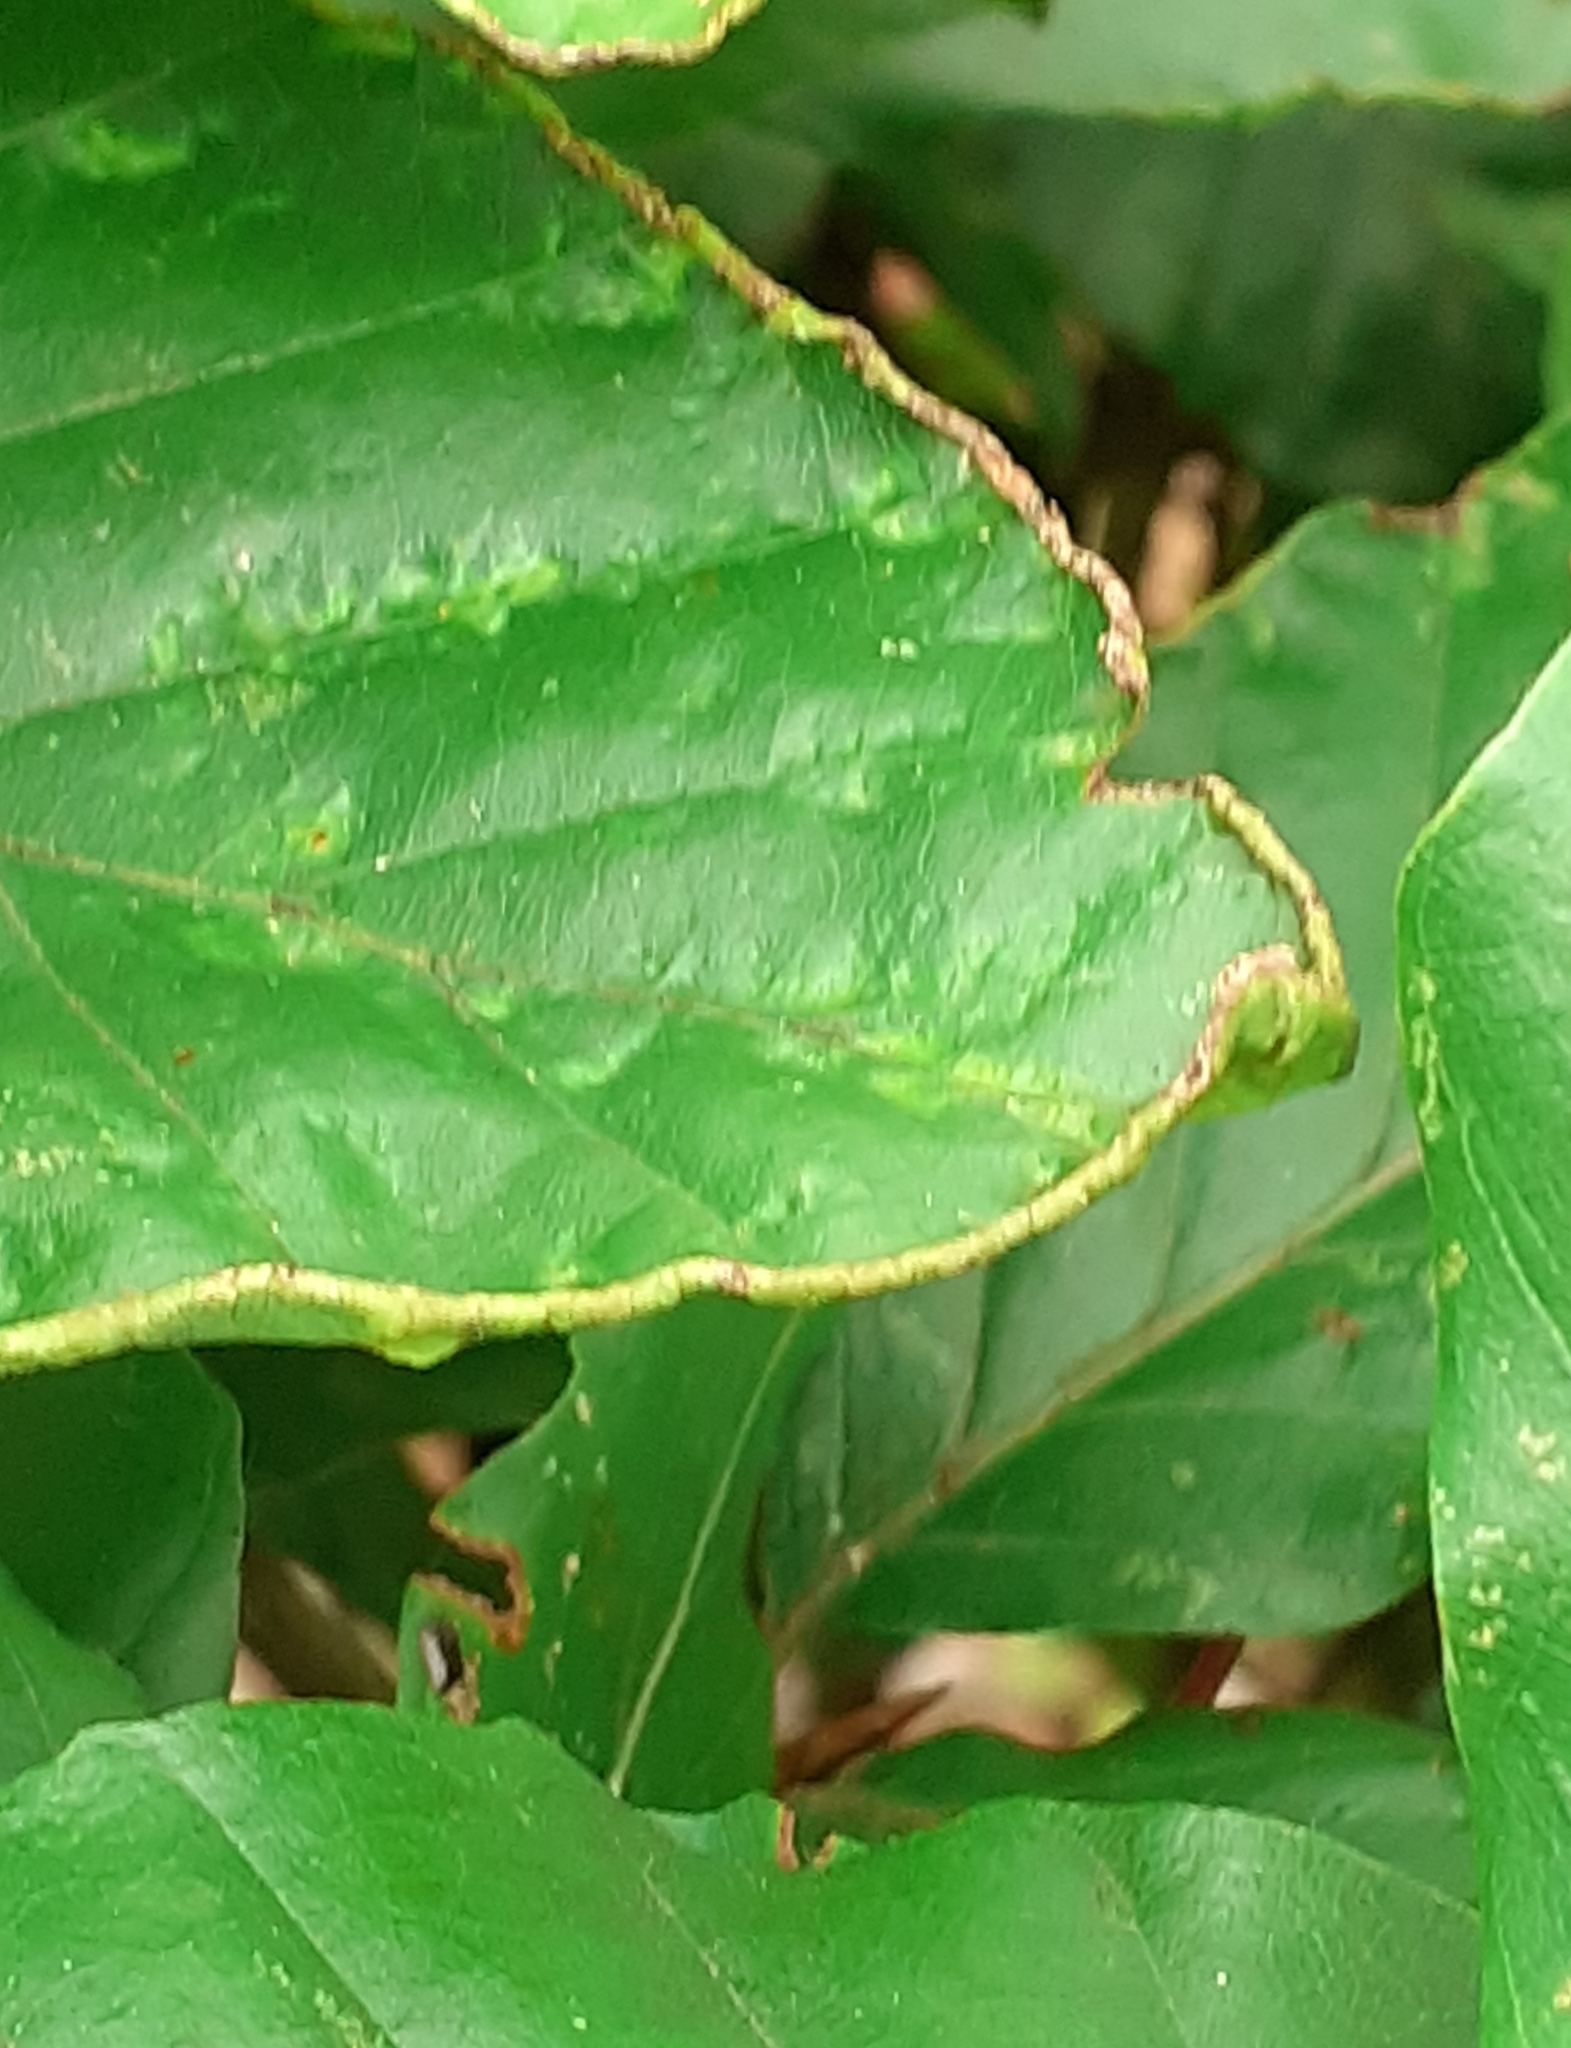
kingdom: Animalia
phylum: Arthropoda
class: Arachnida
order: Trombidiformes
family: Eriophyidae
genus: Acalitus
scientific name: Acalitus stenaspis
